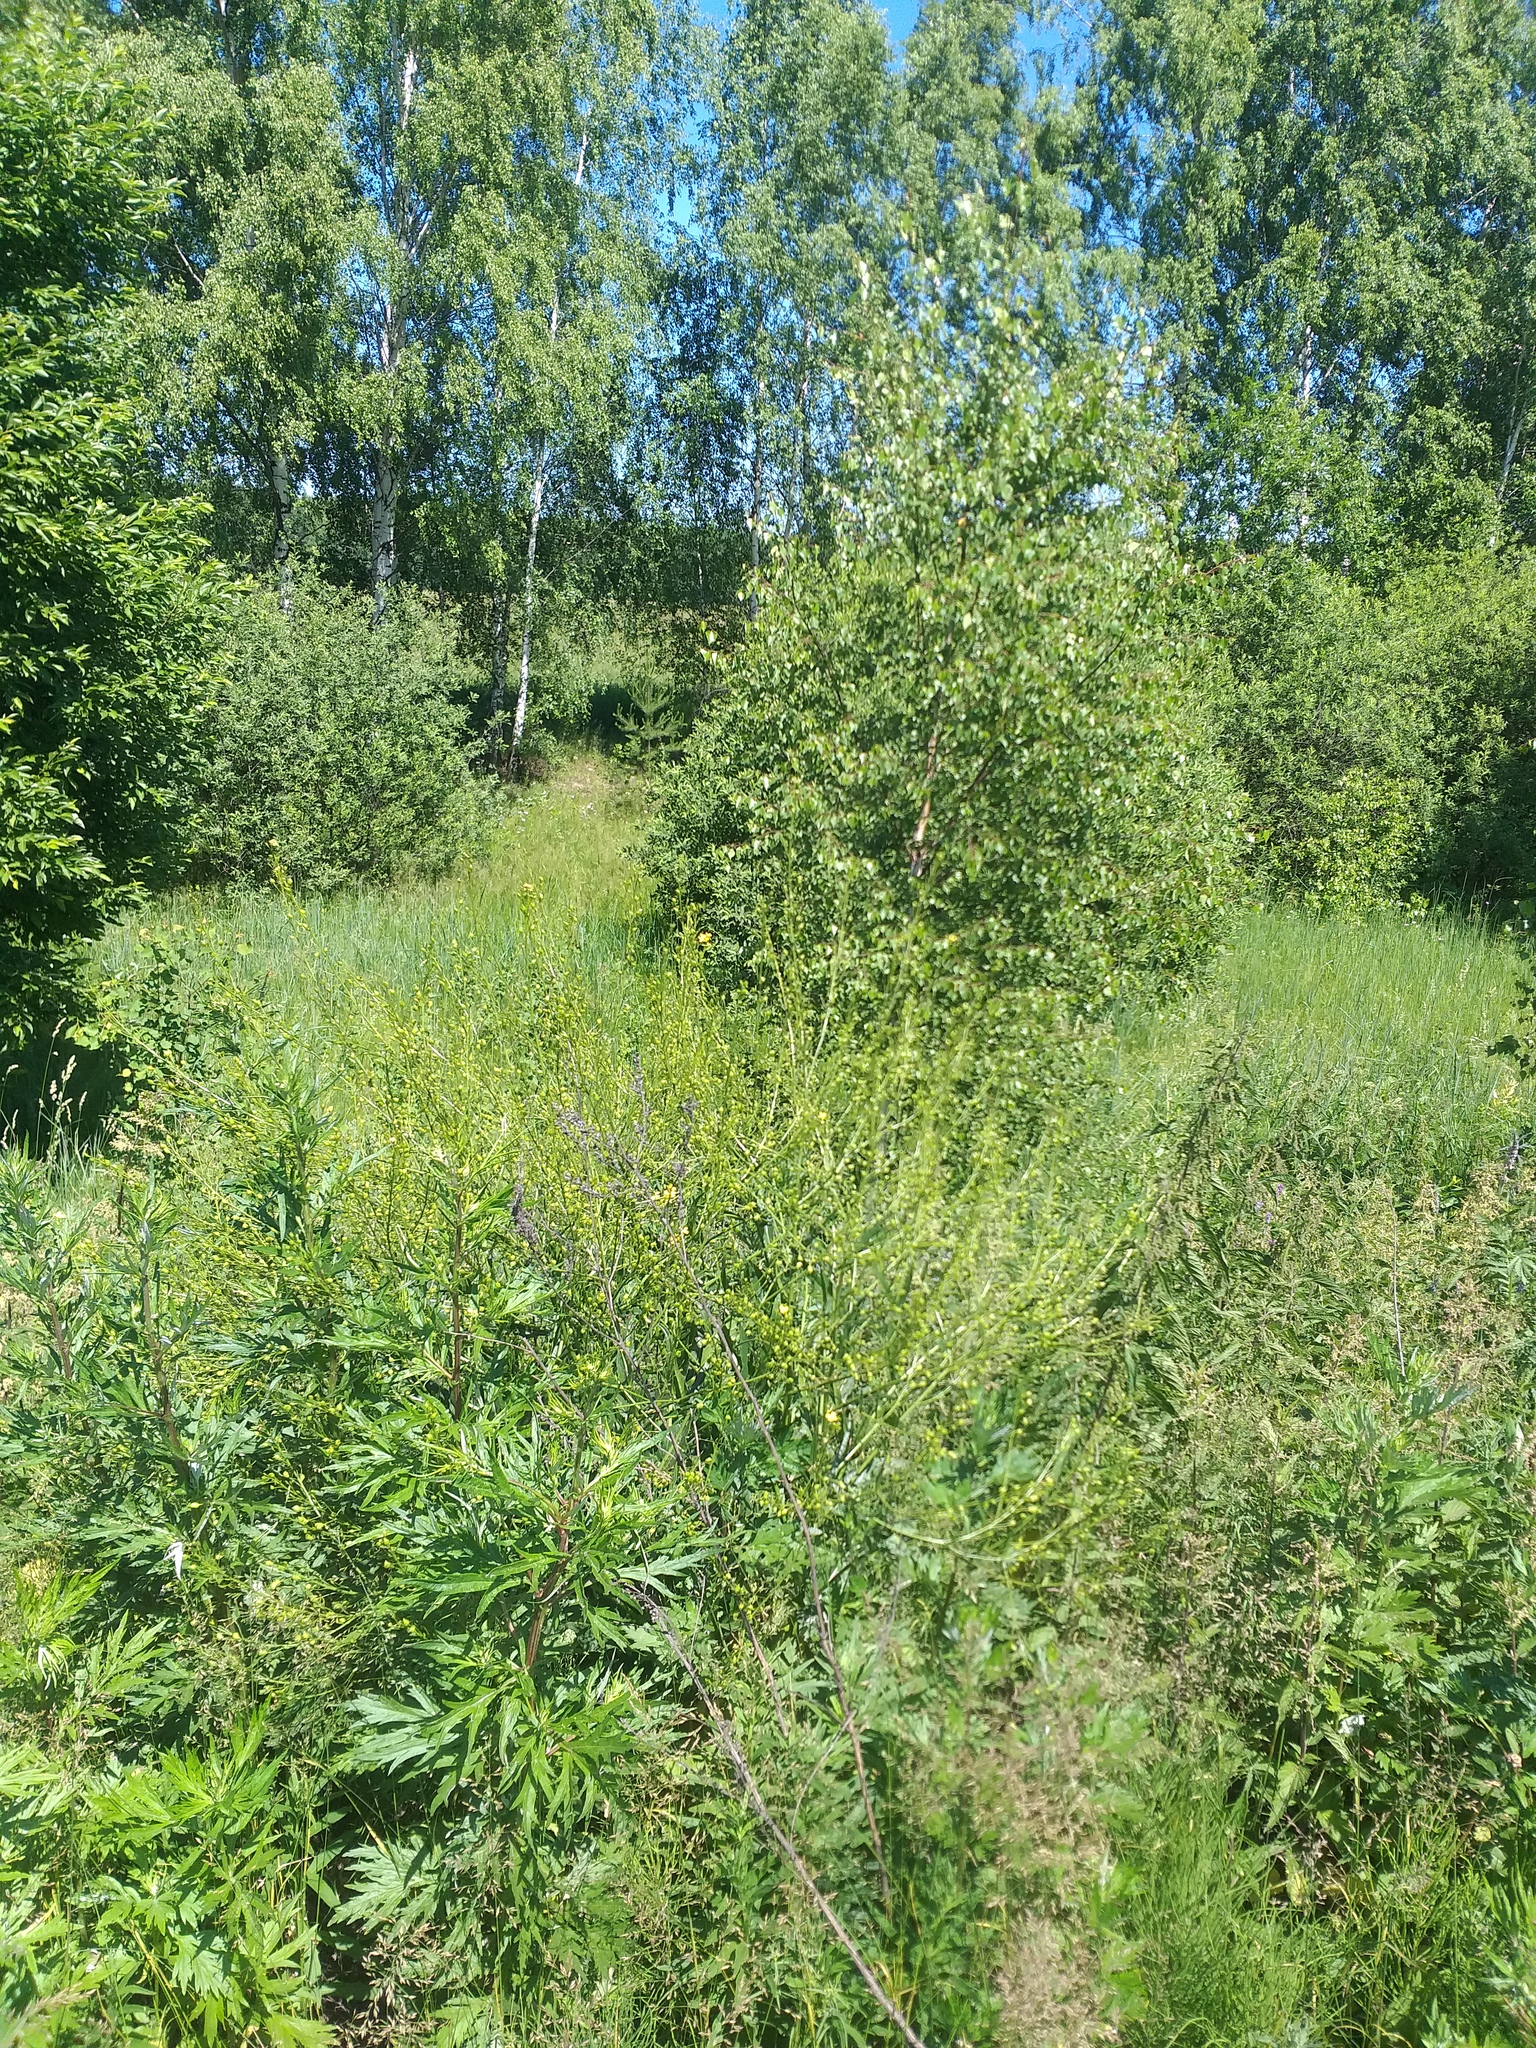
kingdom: Plantae
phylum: Tracheophyta
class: Magnoliopsida
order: Brassicales
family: Brassicaceae
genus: Bunias
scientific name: Bunias orientalis
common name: Warty-cabbage
